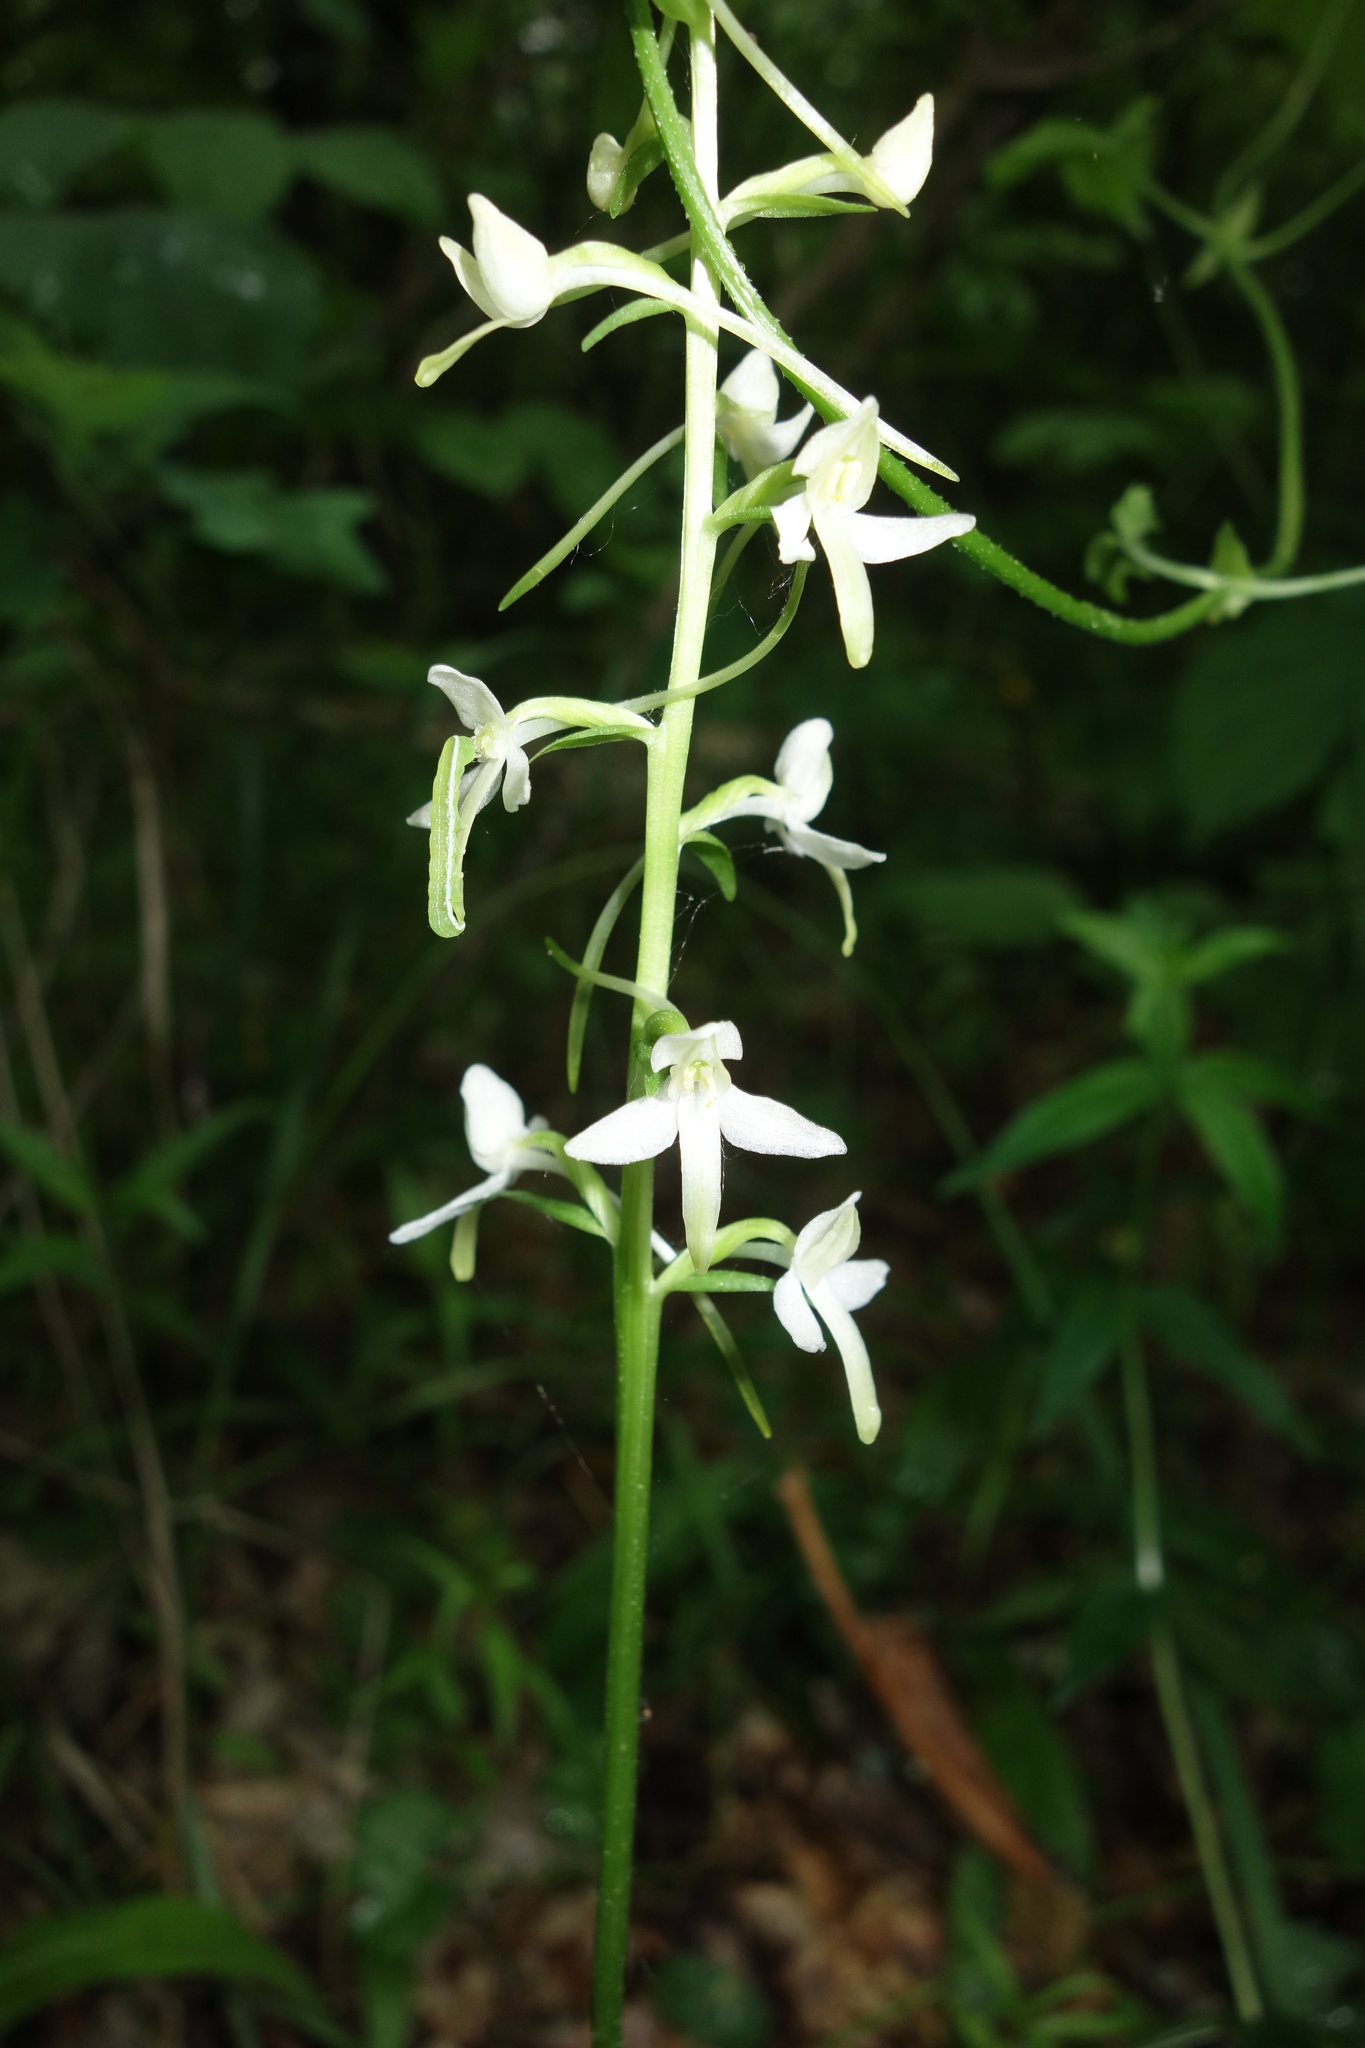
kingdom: Plantae
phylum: Tracheophyta
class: Liliopsida
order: Asparagales
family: Orchidaceae
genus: Platanthera
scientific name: Platanthera bifolia
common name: Lesser butterfly-orchid
